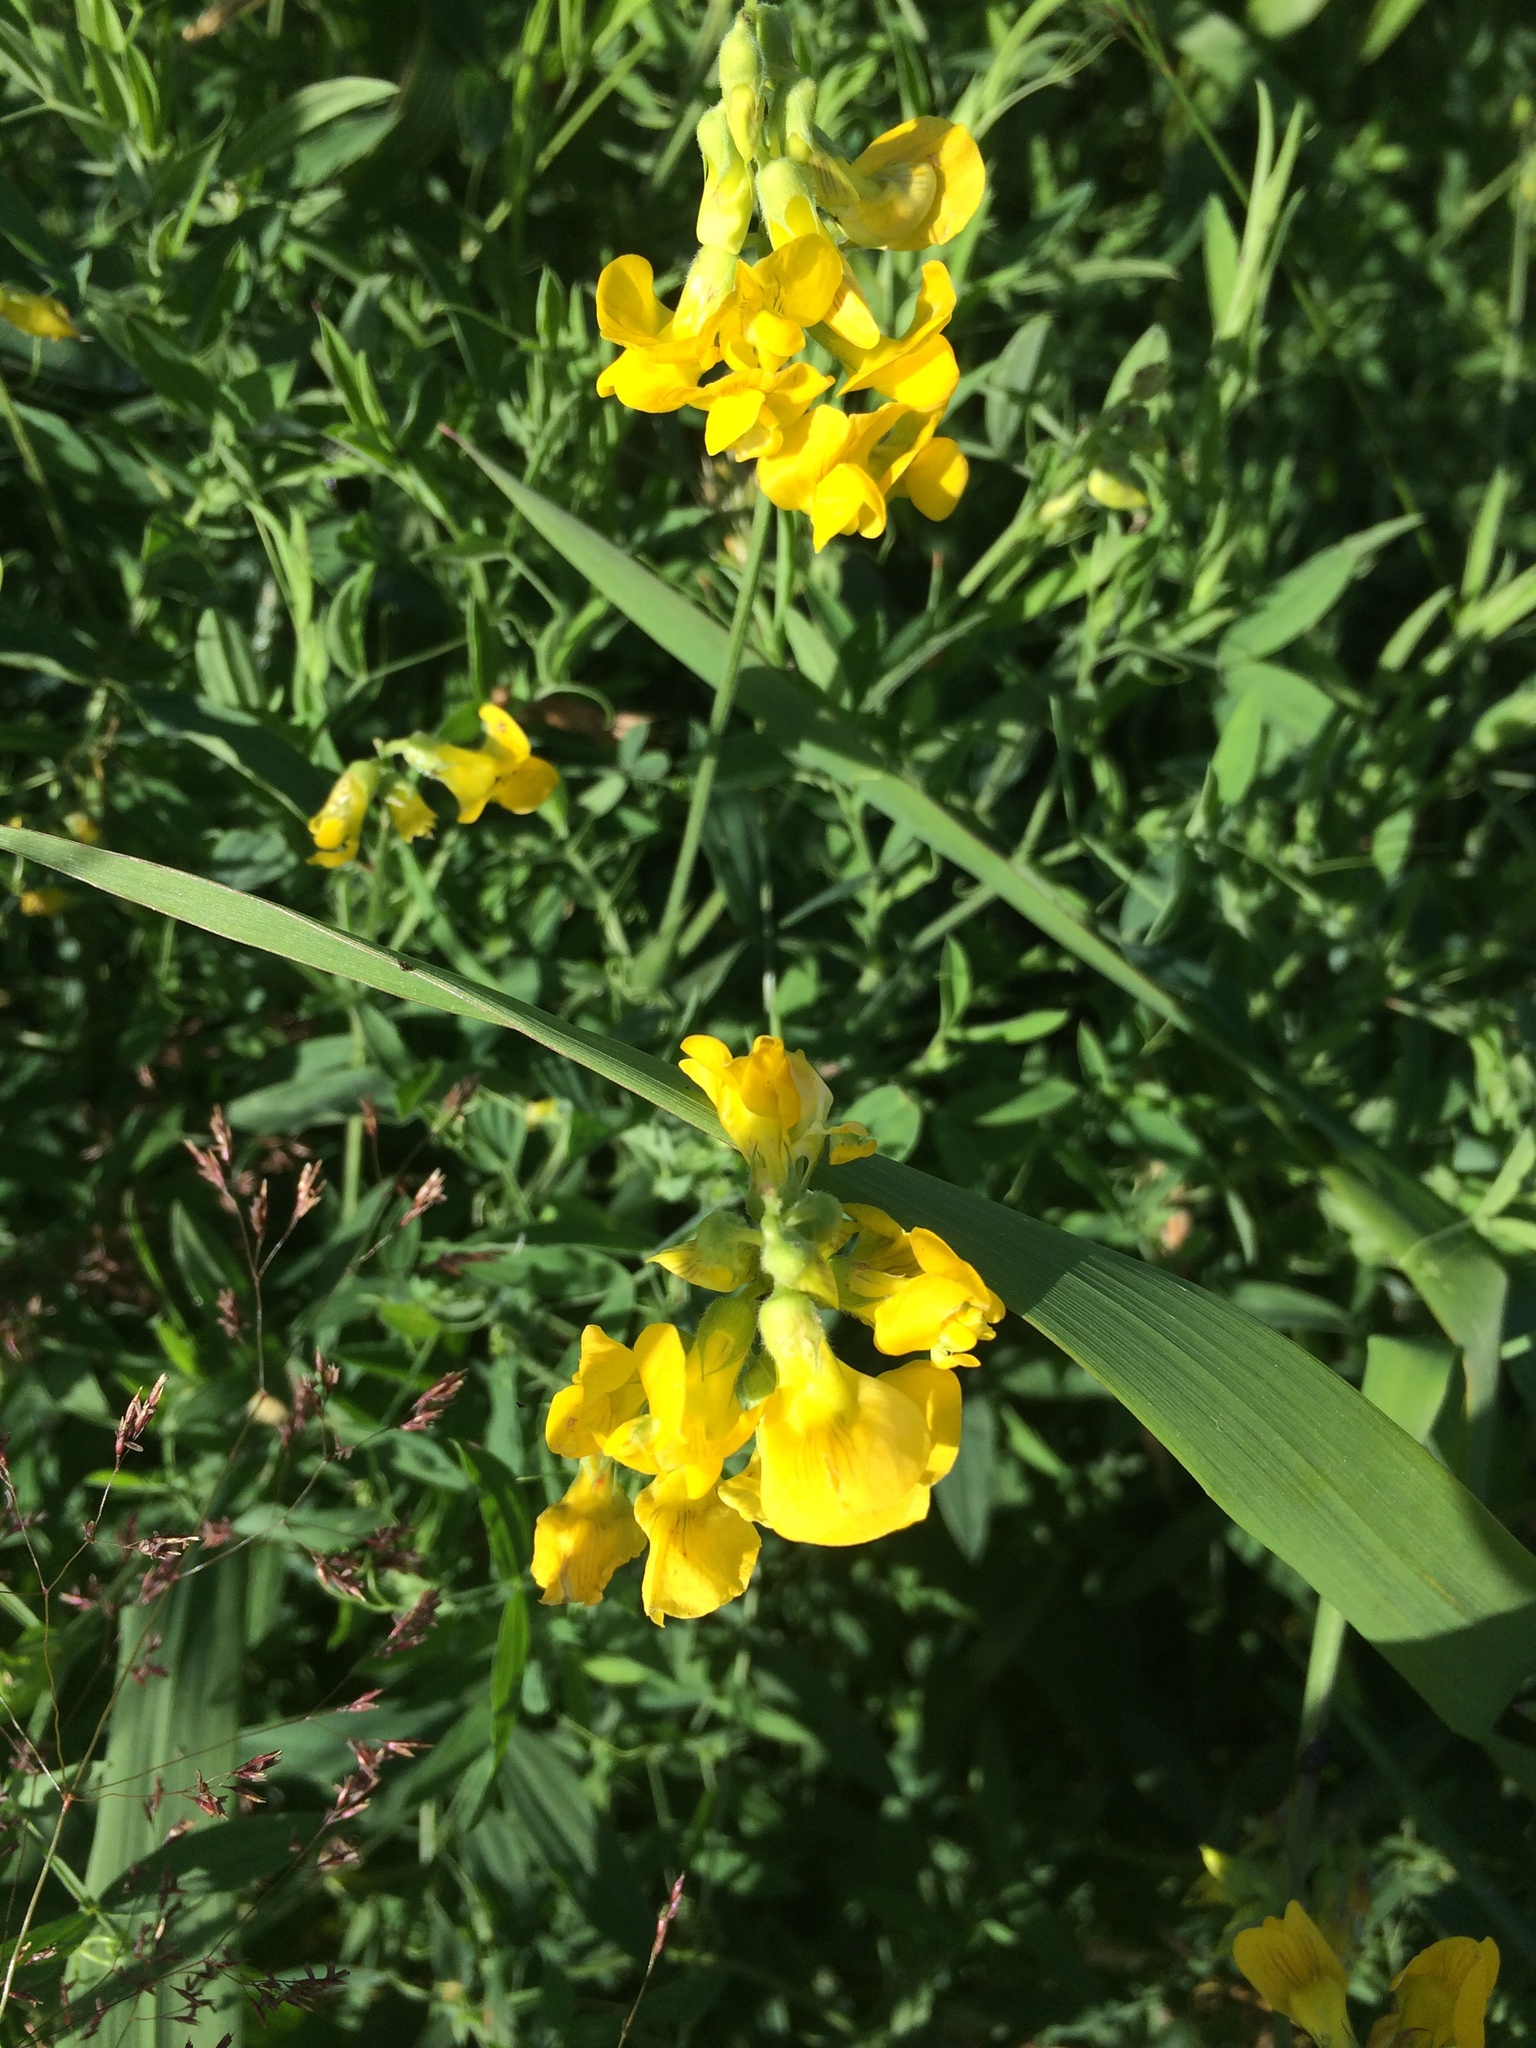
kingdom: Plantae
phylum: Tracheophyta
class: Magnoliopsida
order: Fabales
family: Fabaceae
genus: Lathyrus
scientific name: Lathyrus pratensis
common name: Meadow vetchling
